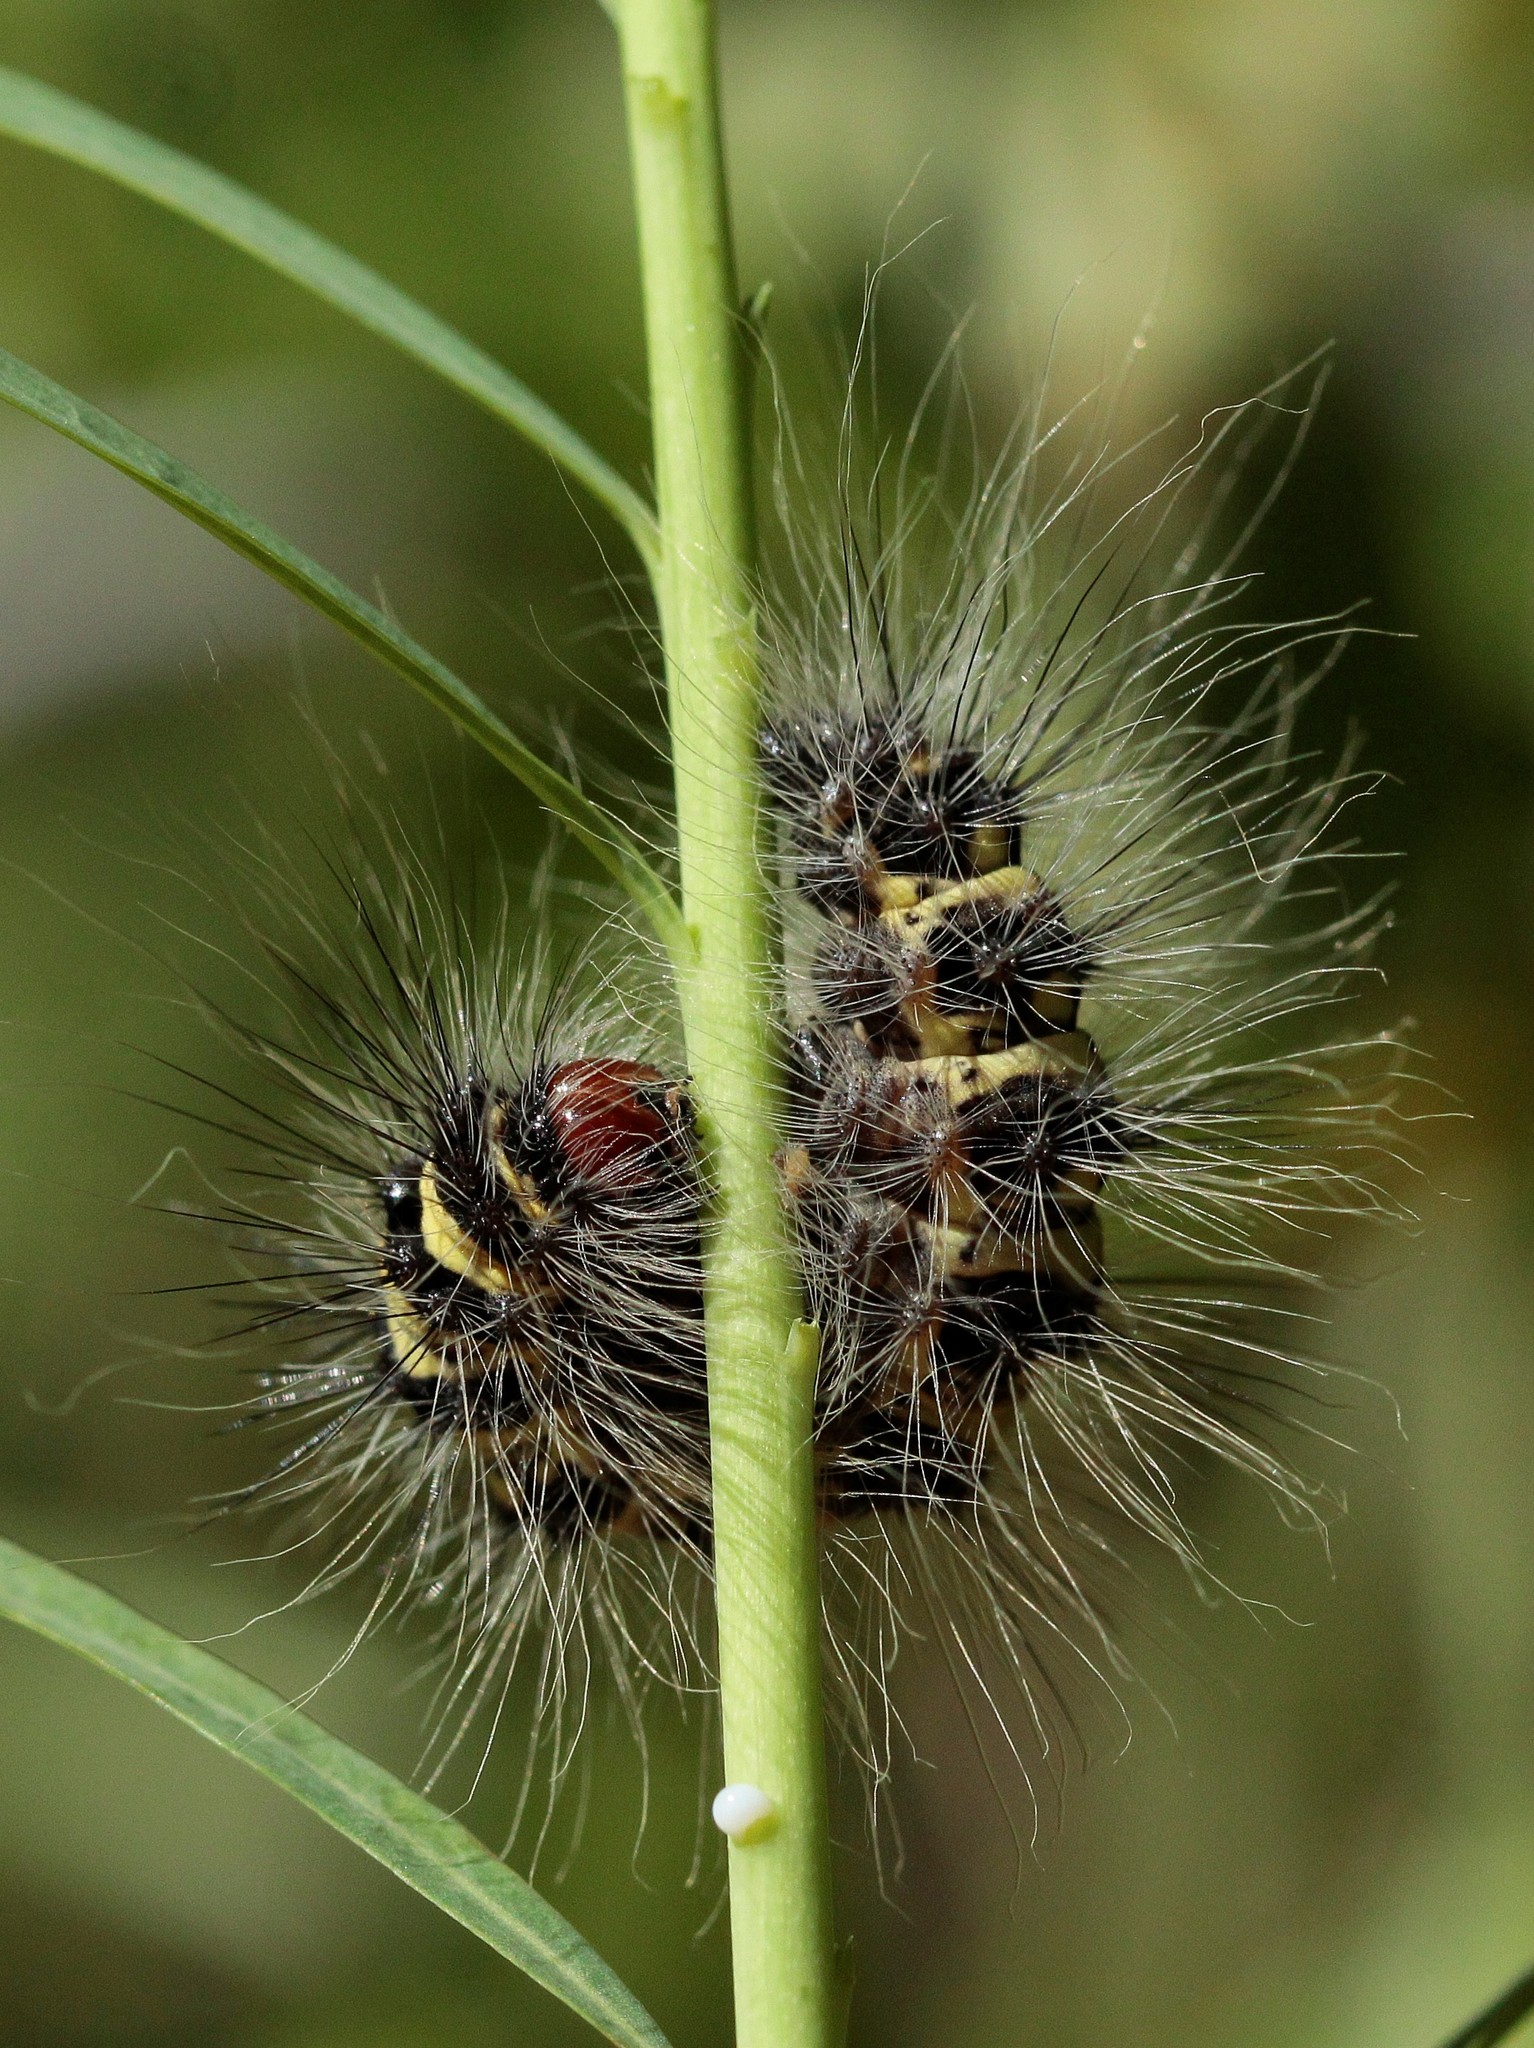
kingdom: Animalia
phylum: Arthropoda
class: Insecta
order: Lepidoptera
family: Noctuidae
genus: Acronicta
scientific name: Acronicta
